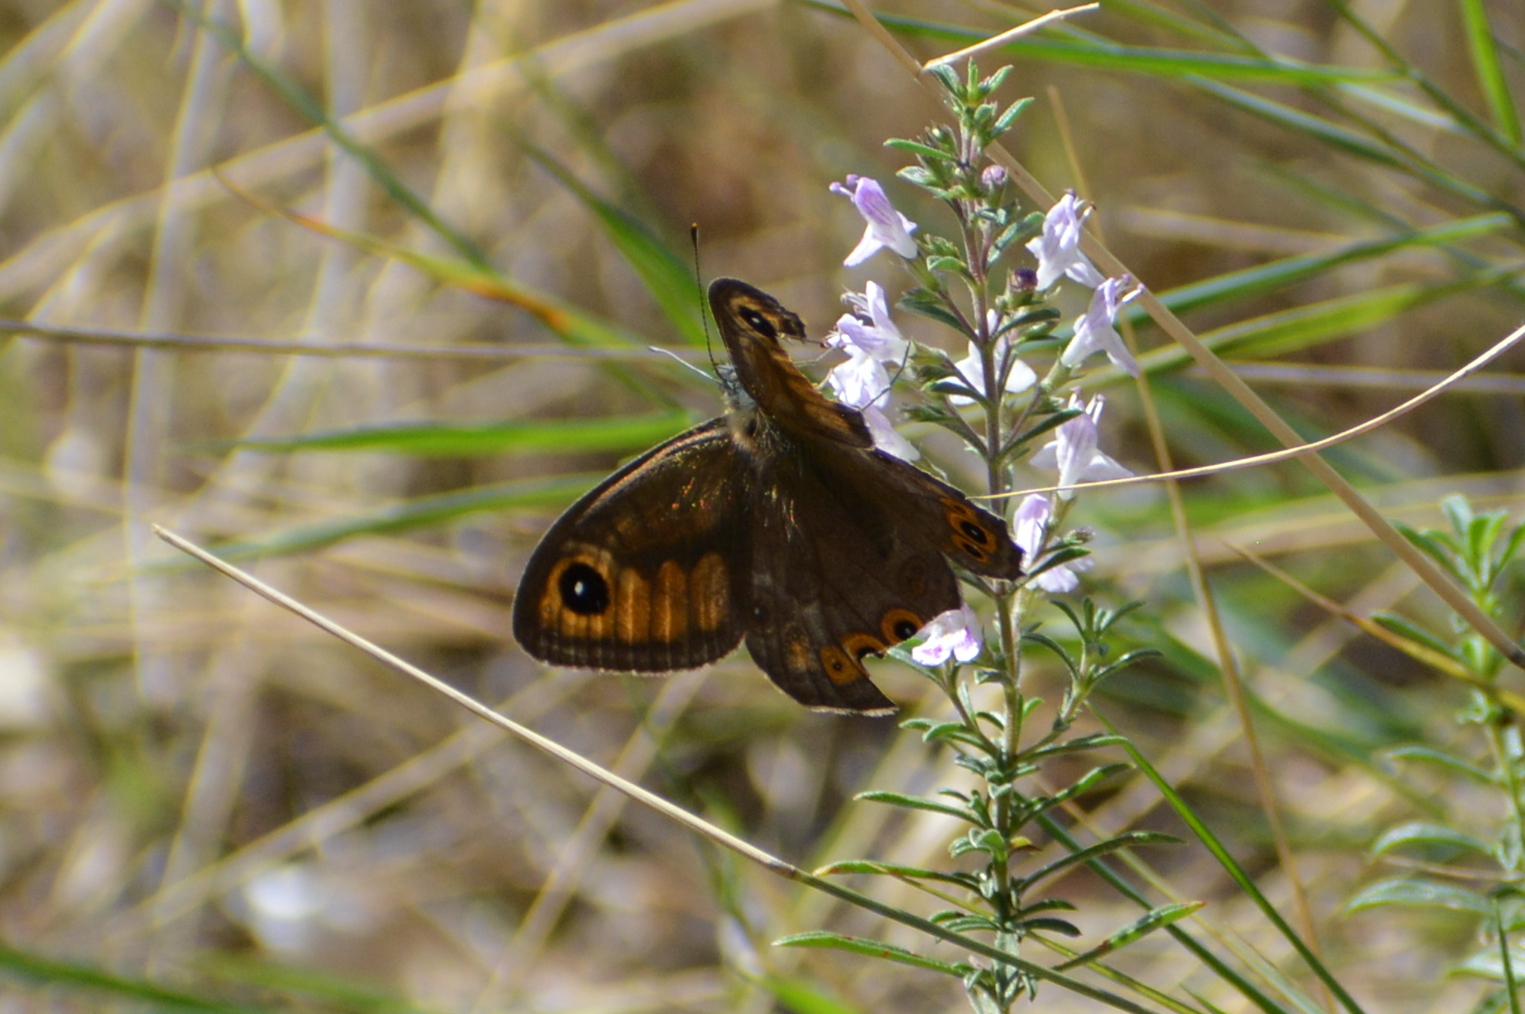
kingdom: Animalia
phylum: Arthropoda
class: Insecta
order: Lepidoptera
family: Nymphalidae
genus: Pararge
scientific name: Pararge Lasiommata maera
